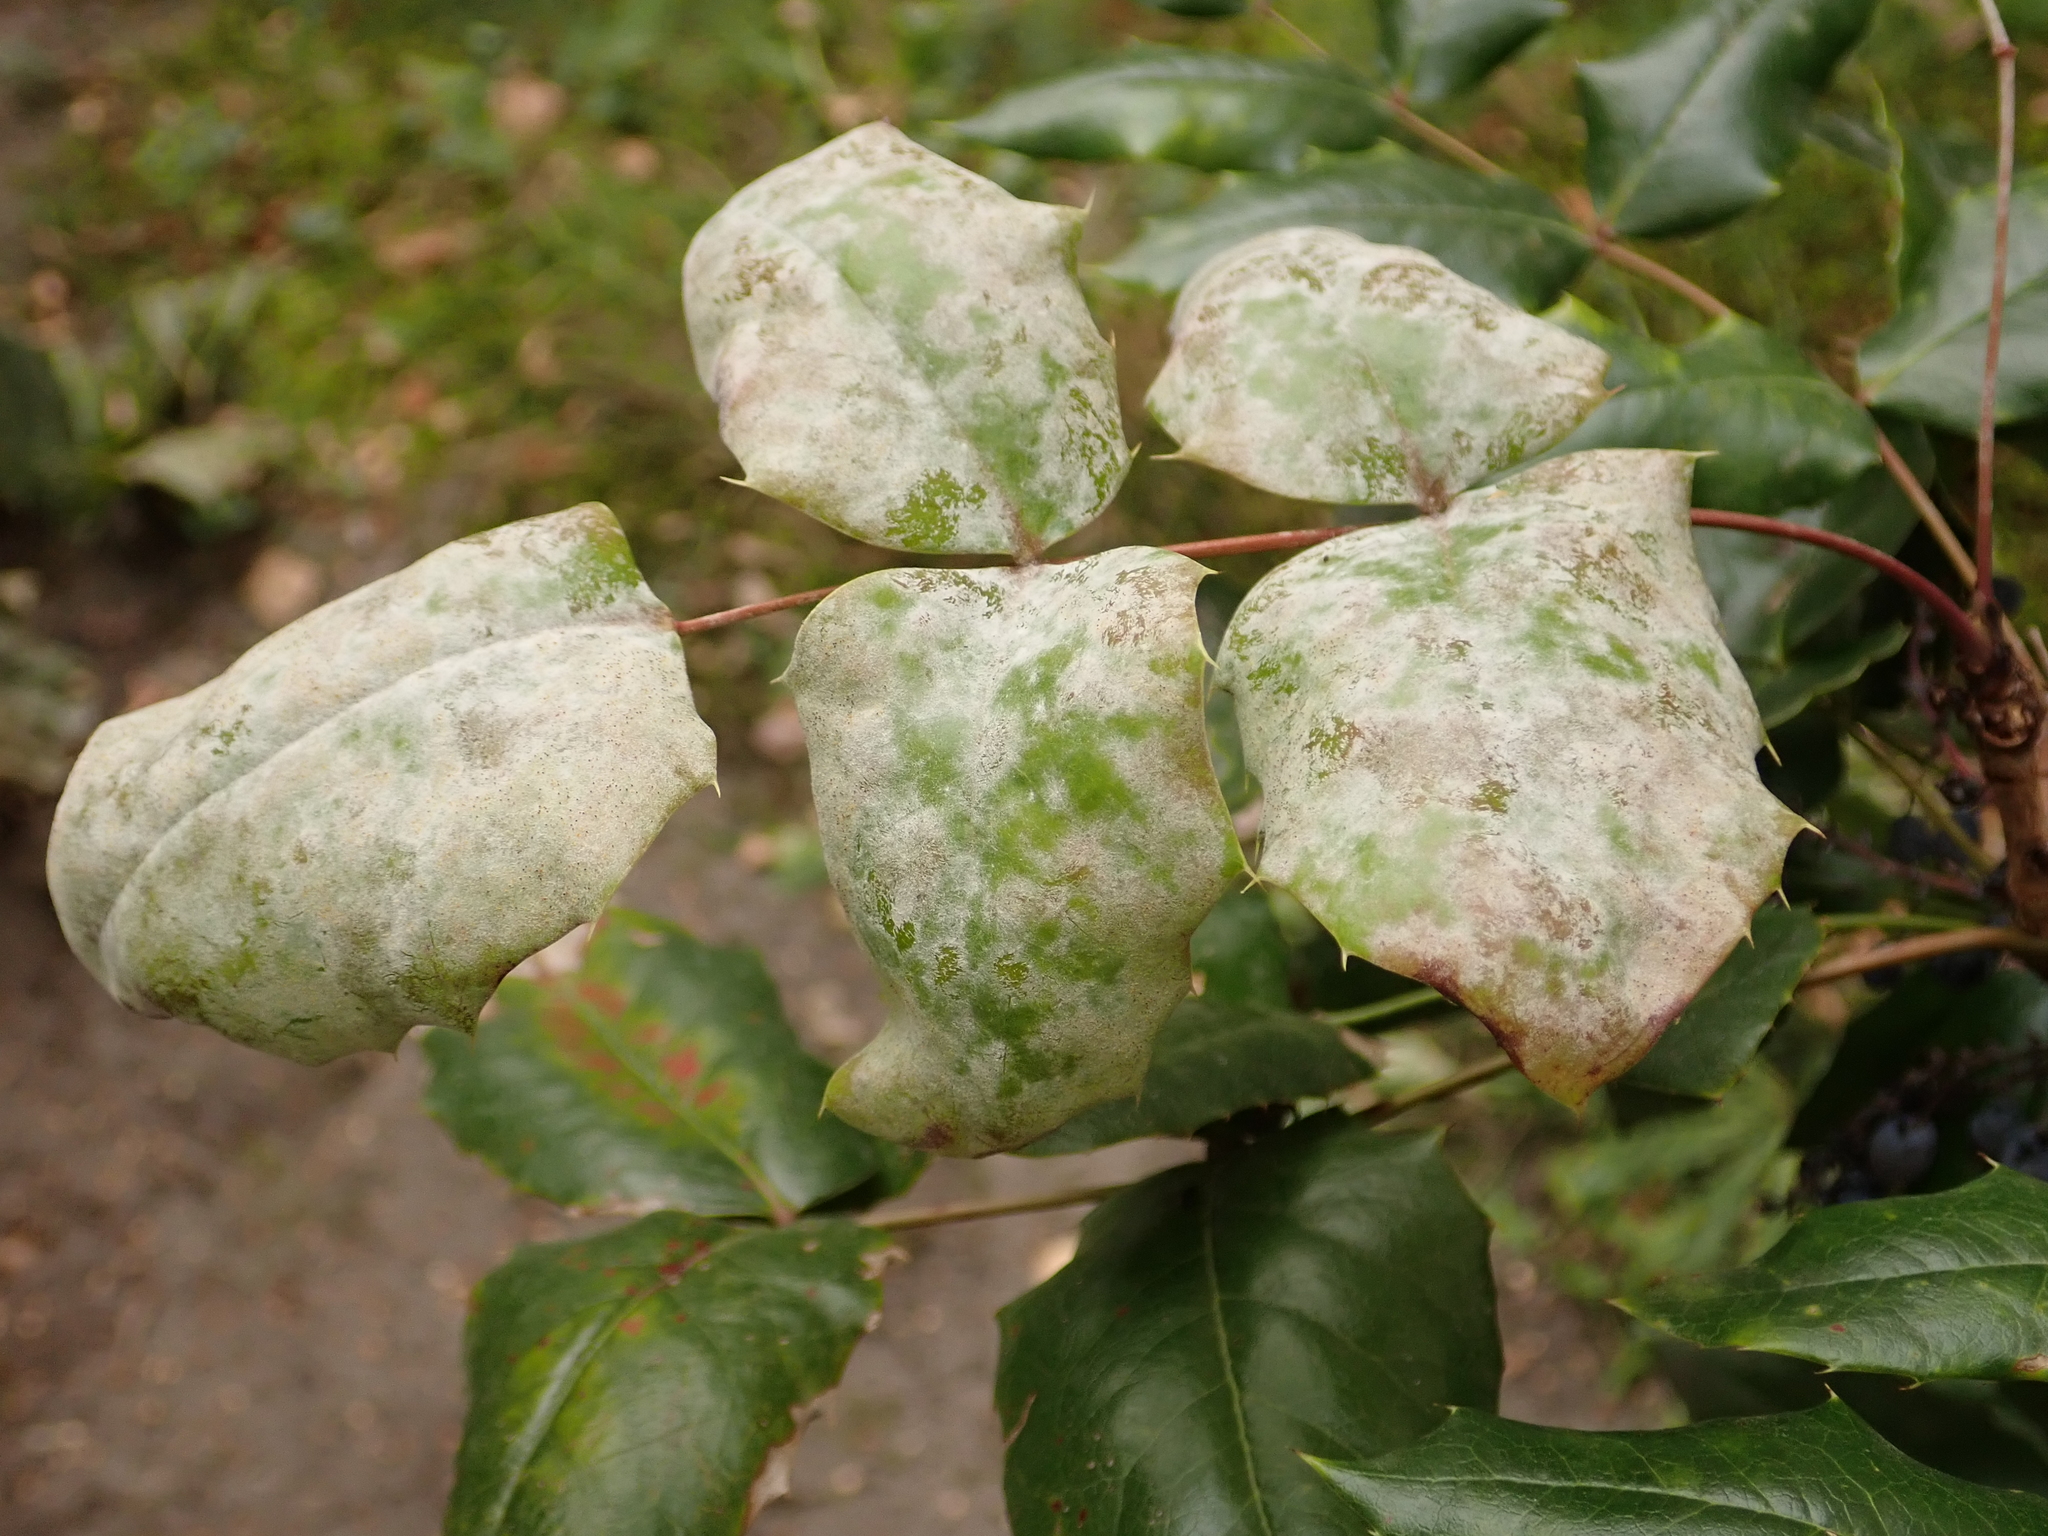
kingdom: Fungi
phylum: Ascomycota
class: Leotiomycetes
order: Helotiales
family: Erysiphaceae
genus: Erysiphe
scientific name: Erysiphe berberidis
